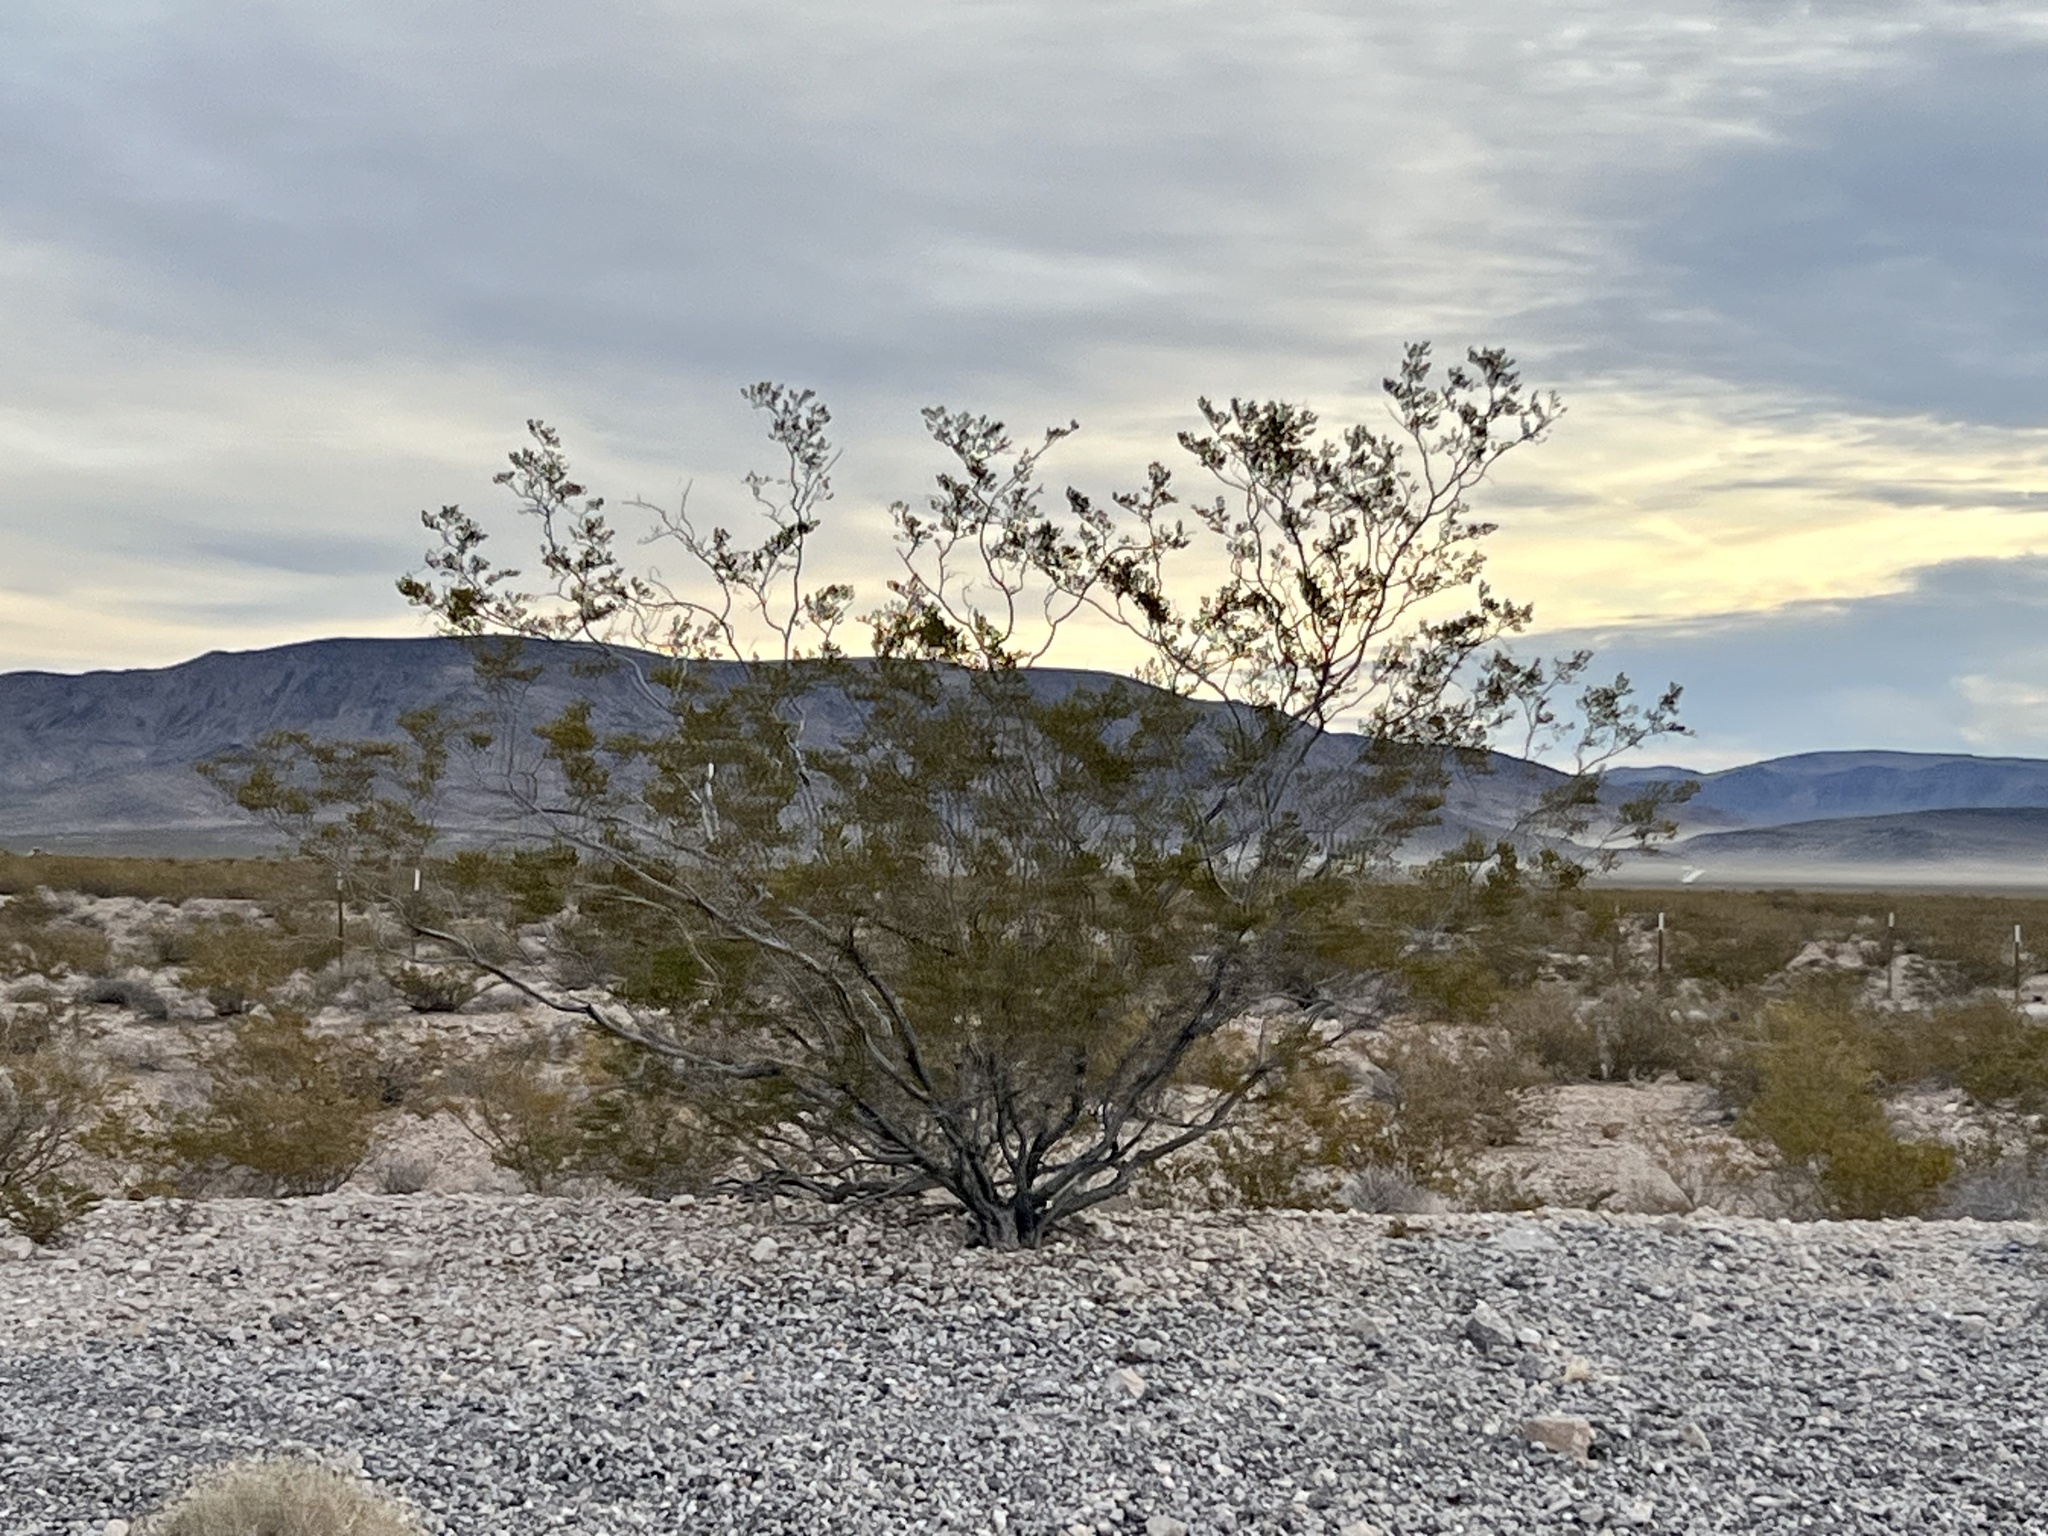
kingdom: Plantae
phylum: Tracheophyta
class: Magnoliopsida
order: Zygophyllales
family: Zygophyllaceae
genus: Larrea
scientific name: Larrea tridentata
